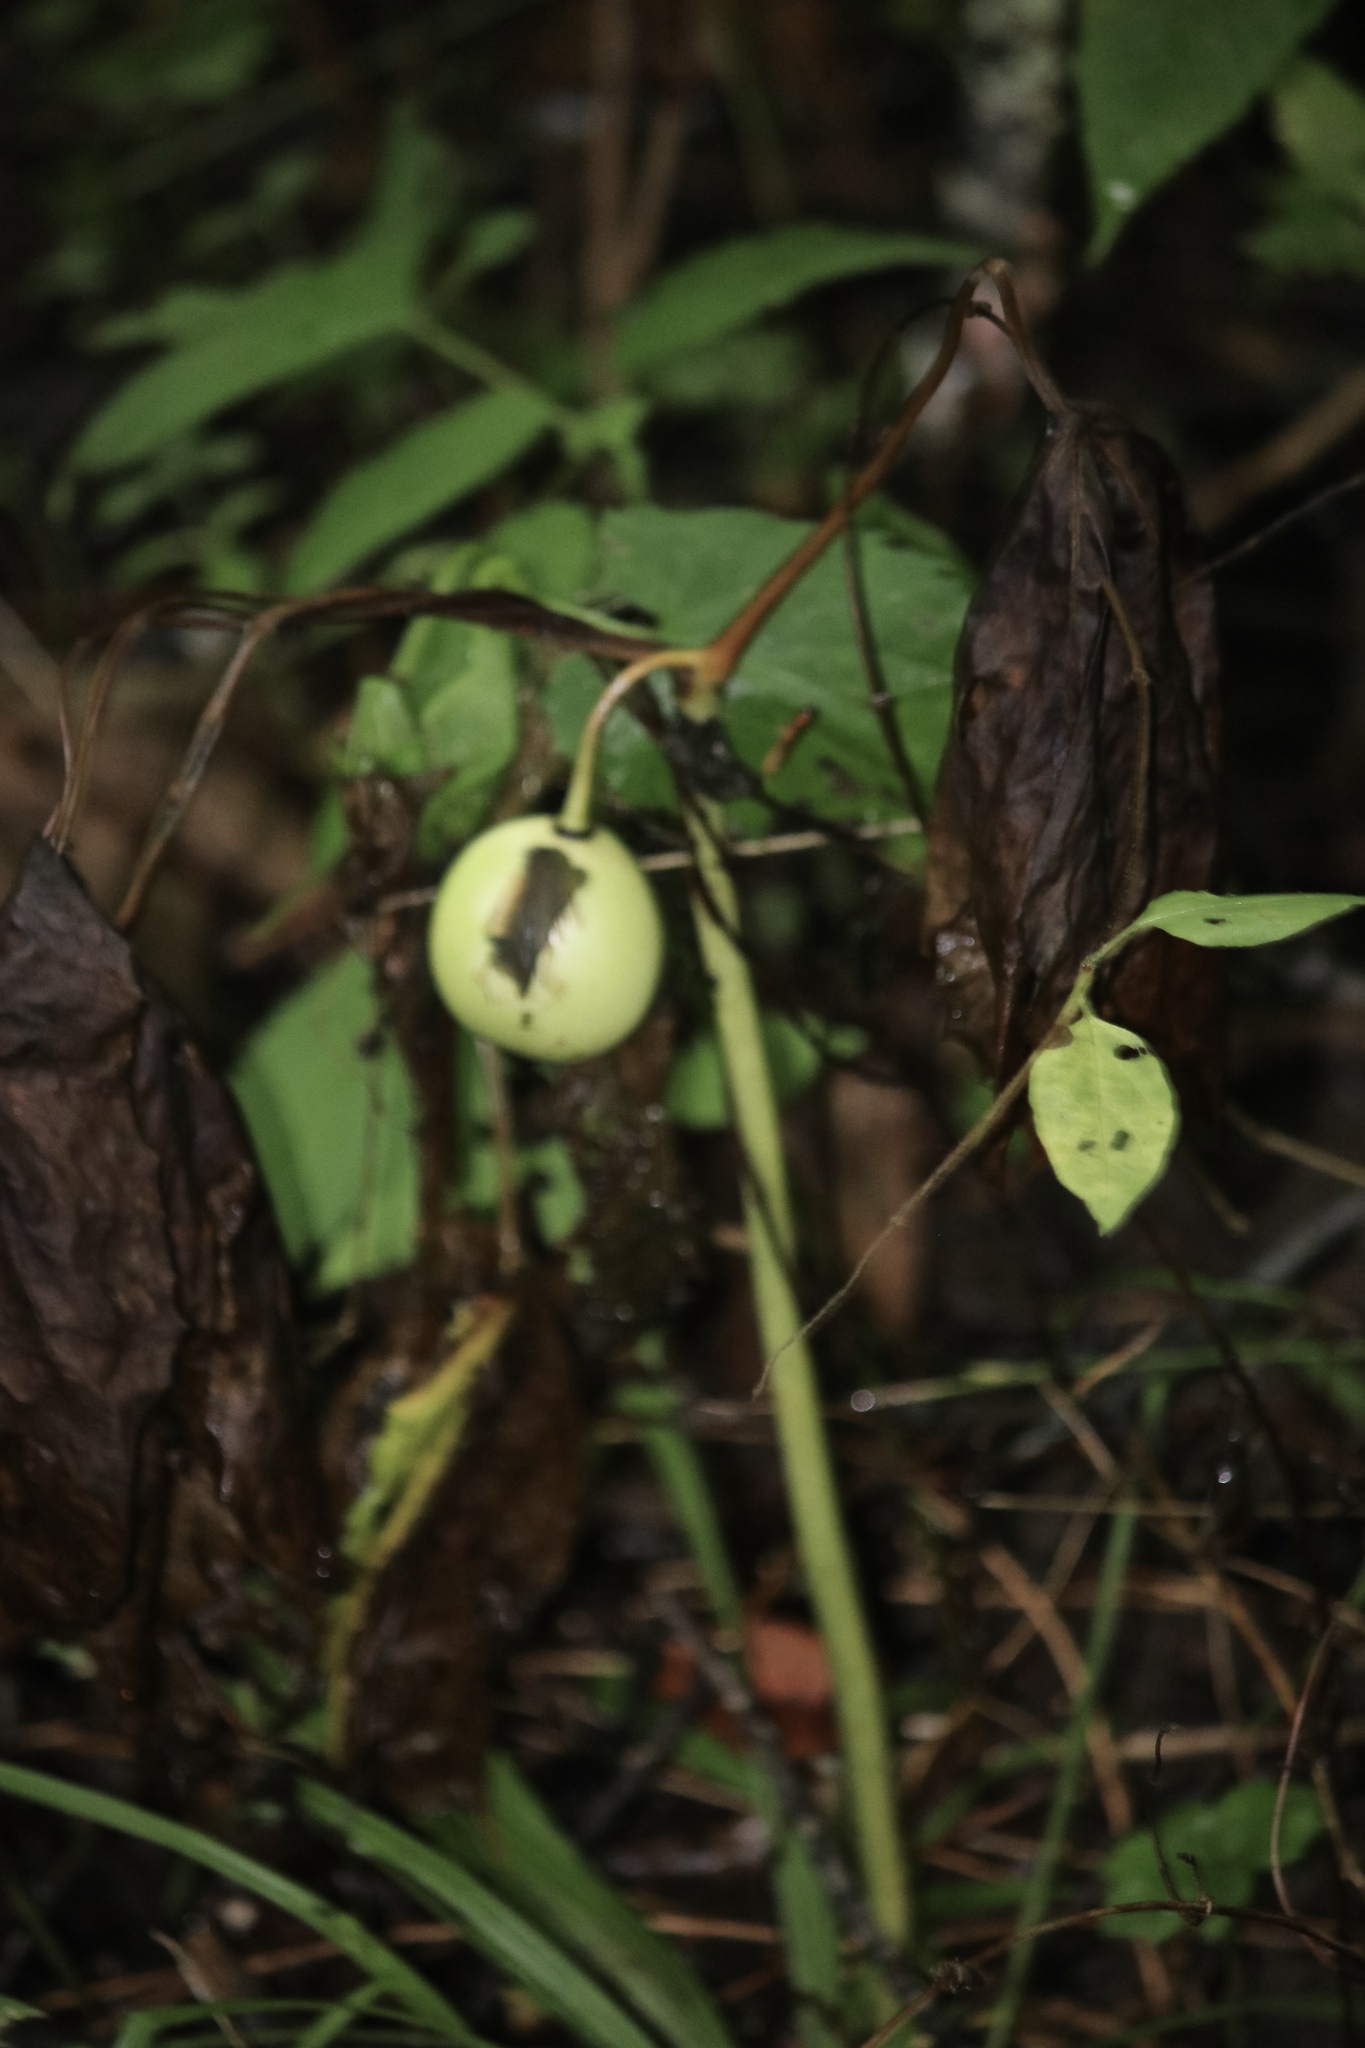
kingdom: Plantae
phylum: Tracheophyta
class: Magnoliopsida
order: Ranunculales
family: Berberidaceae
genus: Podophyllum
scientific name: Podophyllum peltatum
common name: Wild mandrake
